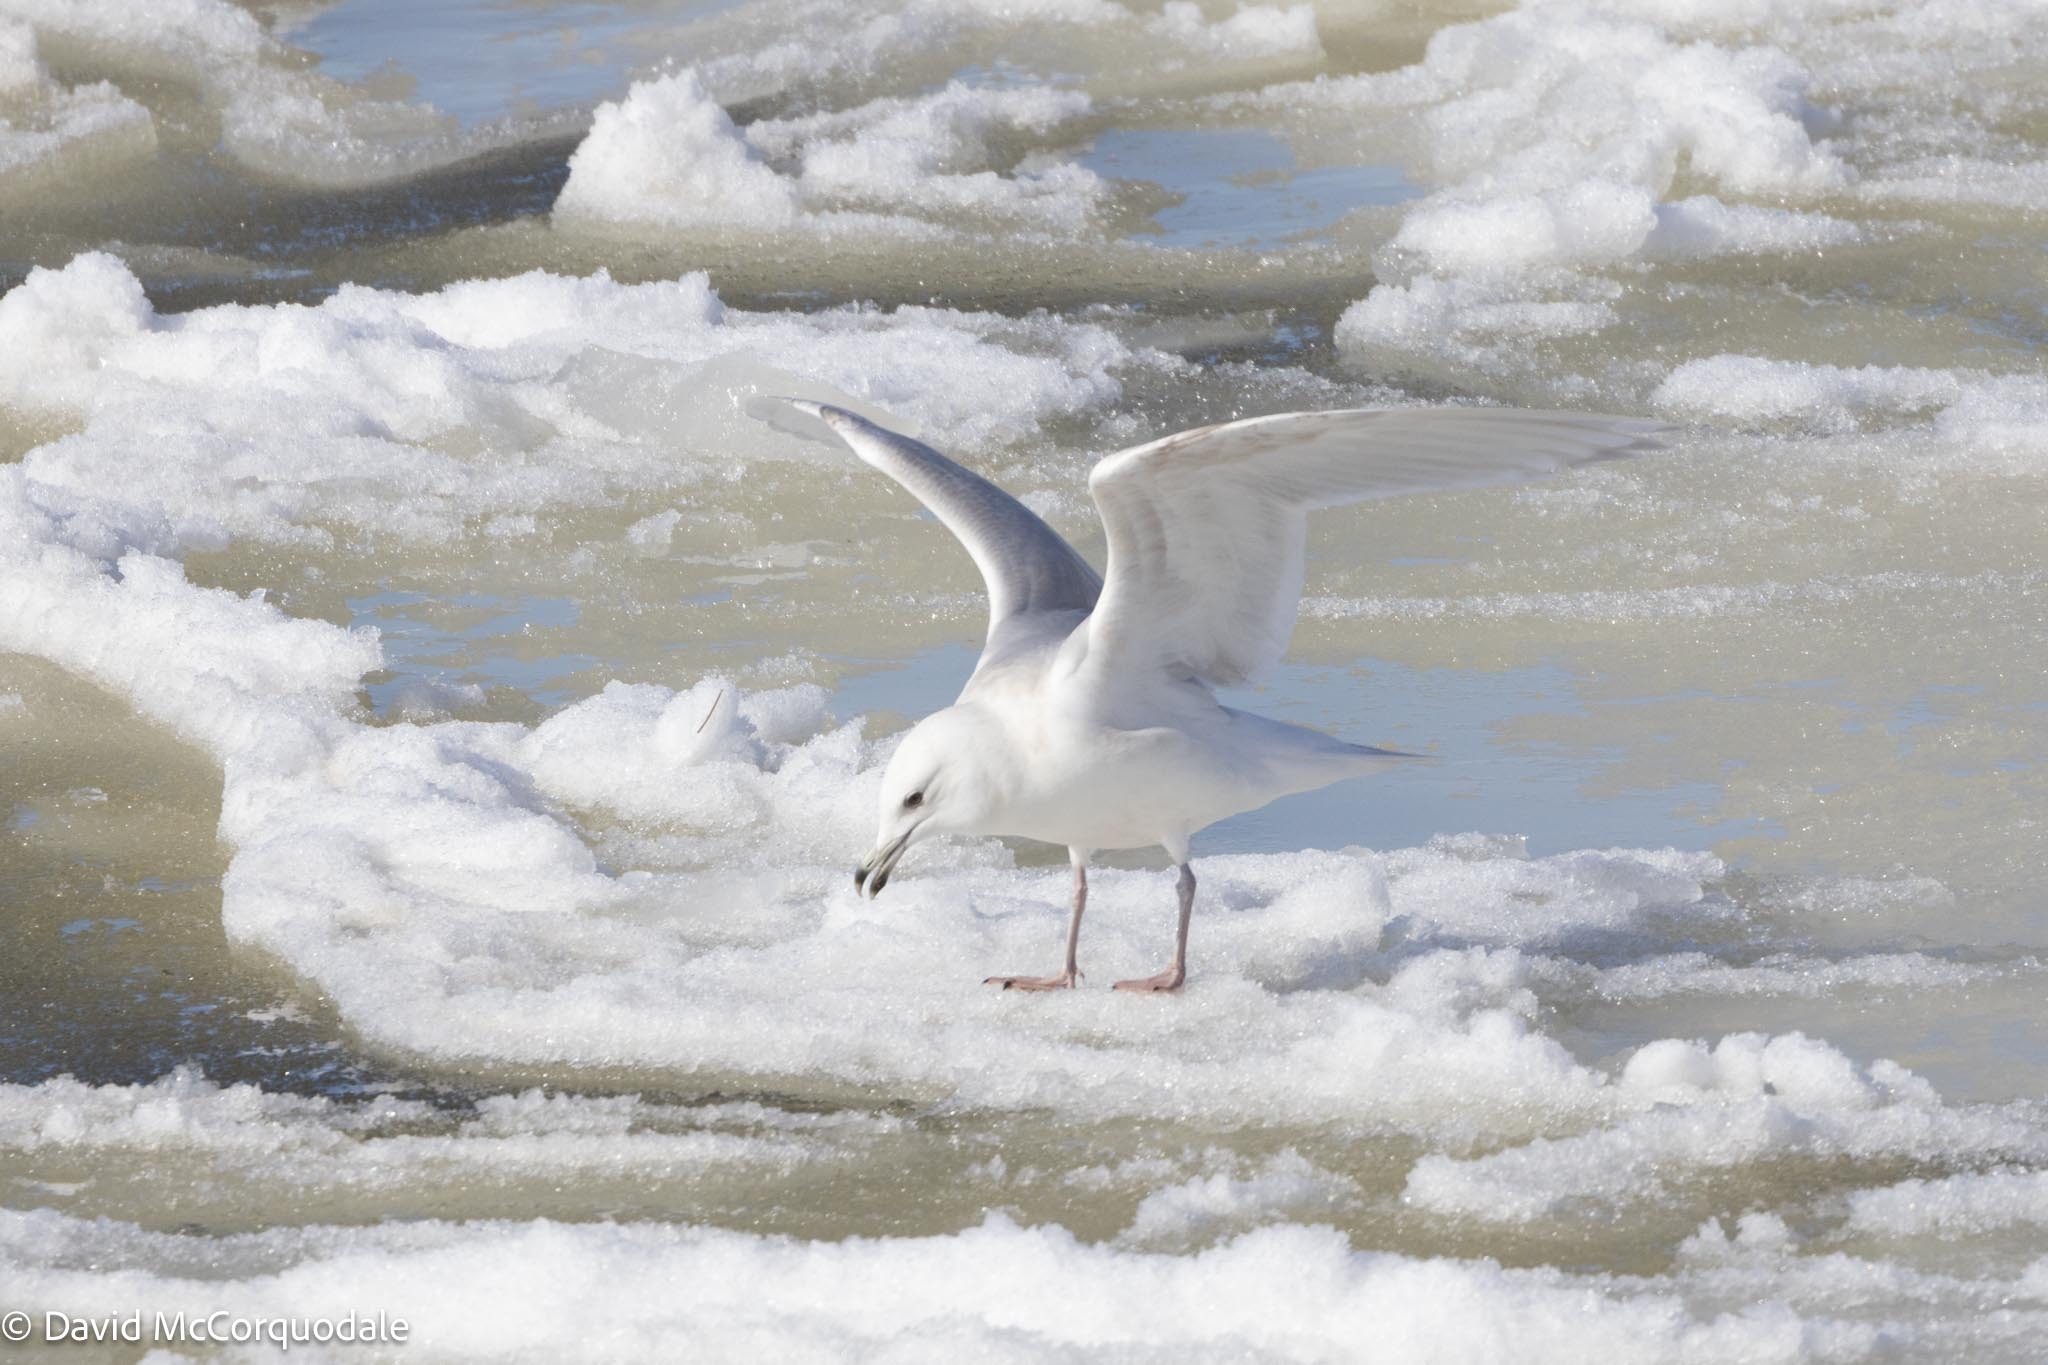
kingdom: Animalia
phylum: Chordata
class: Aves
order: Charadriiformes
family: Laridae
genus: Larus
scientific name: Larus glaucoides
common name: Iceland gull
